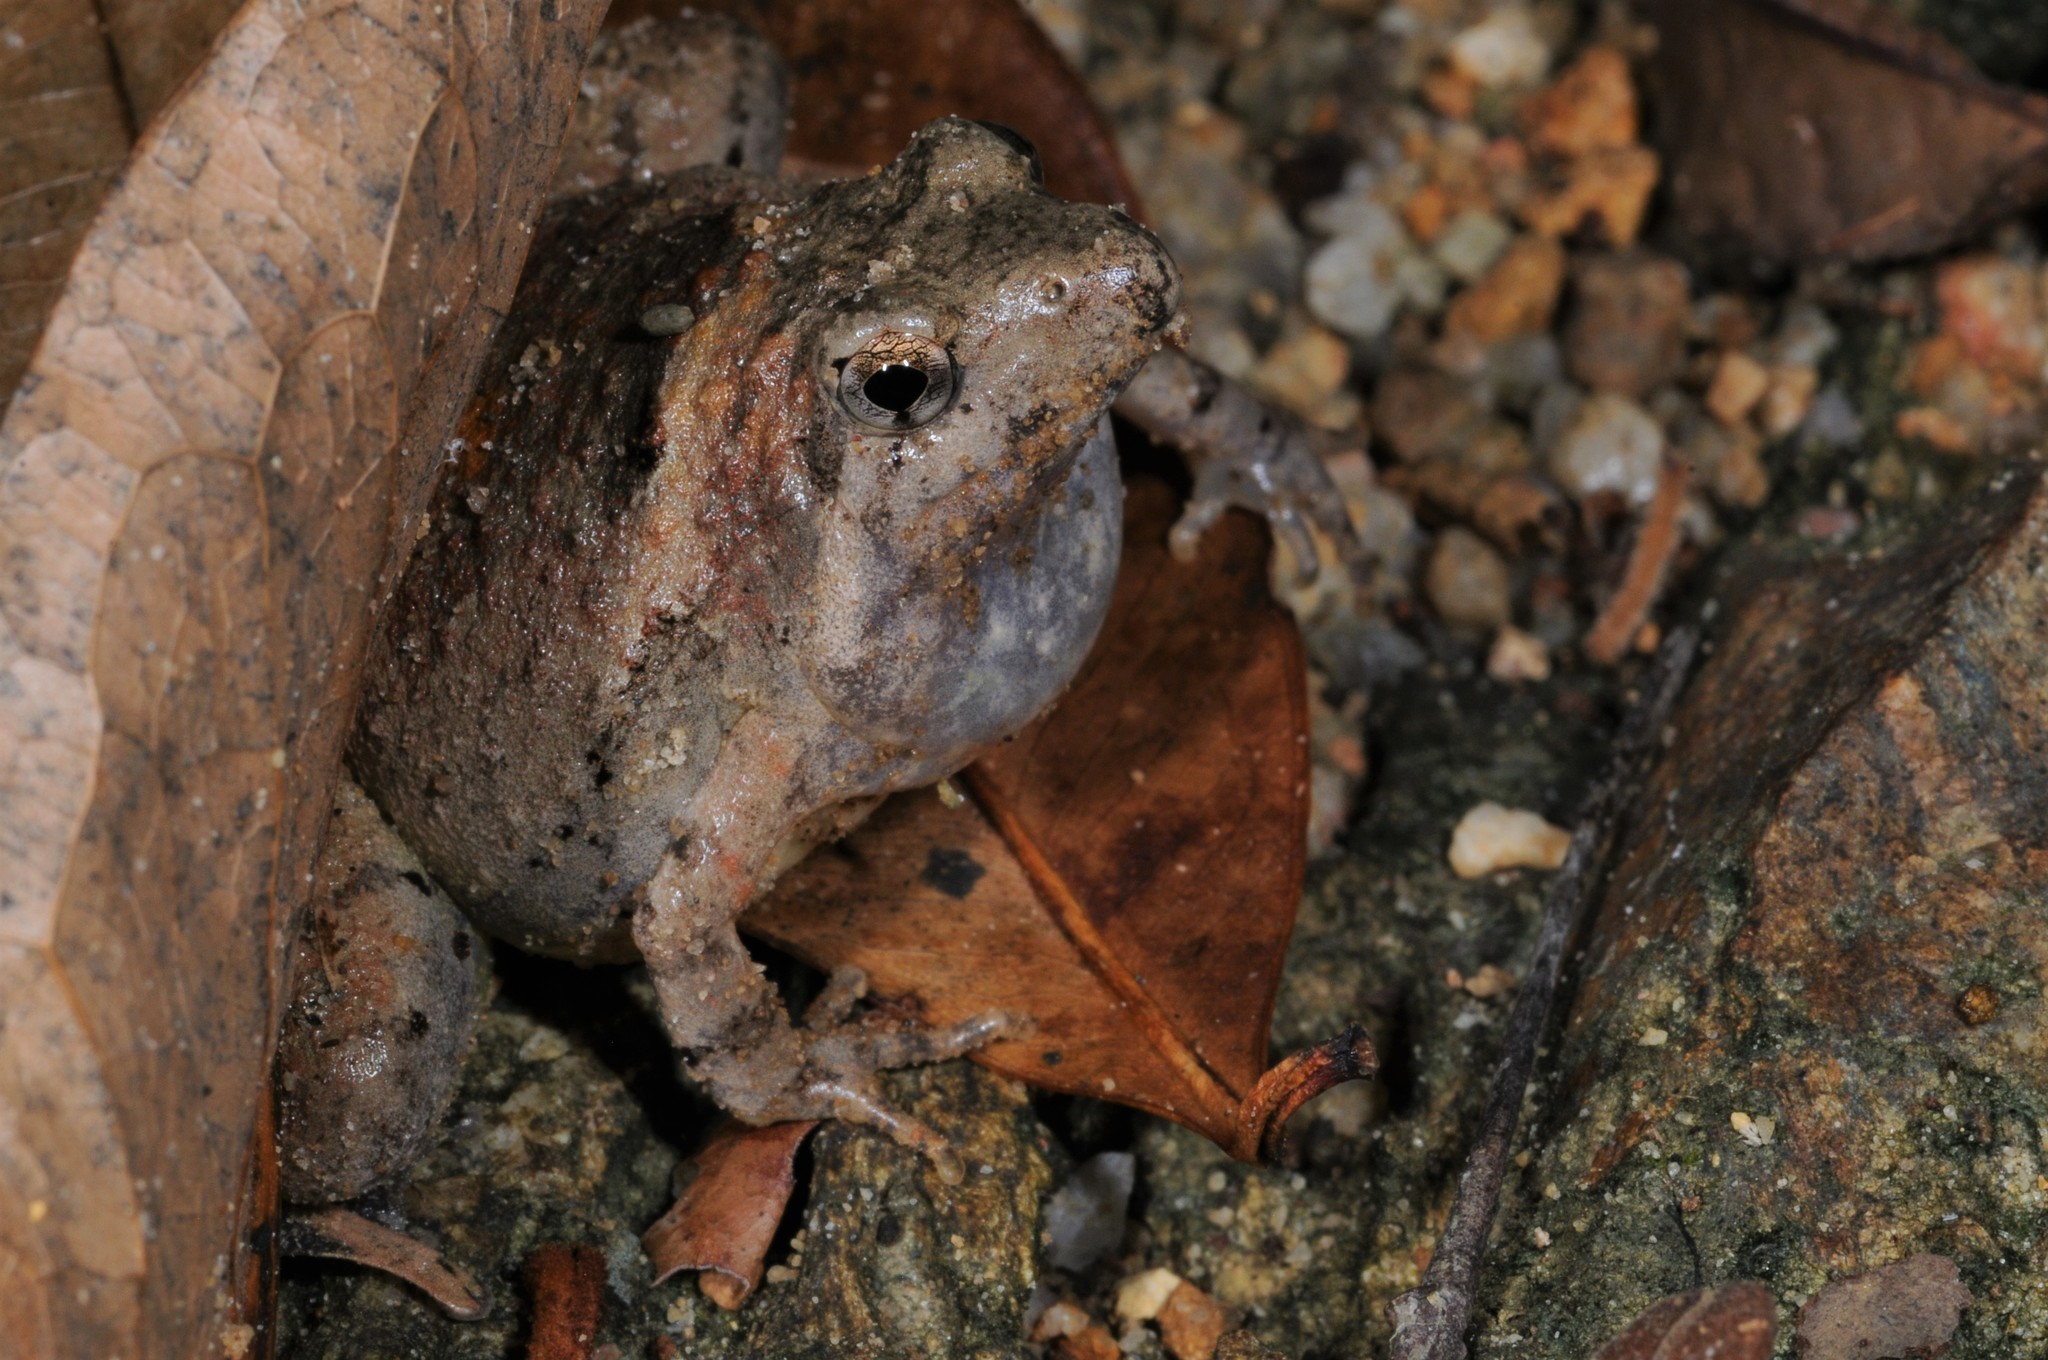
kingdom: Animalia
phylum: Chordata
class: Amphibia
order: Anura
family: Microhylidae
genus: Microhyla
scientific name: Microhyla berdmorei
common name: Berdmore’s narrow-mouthed frog,large pygmy frog
